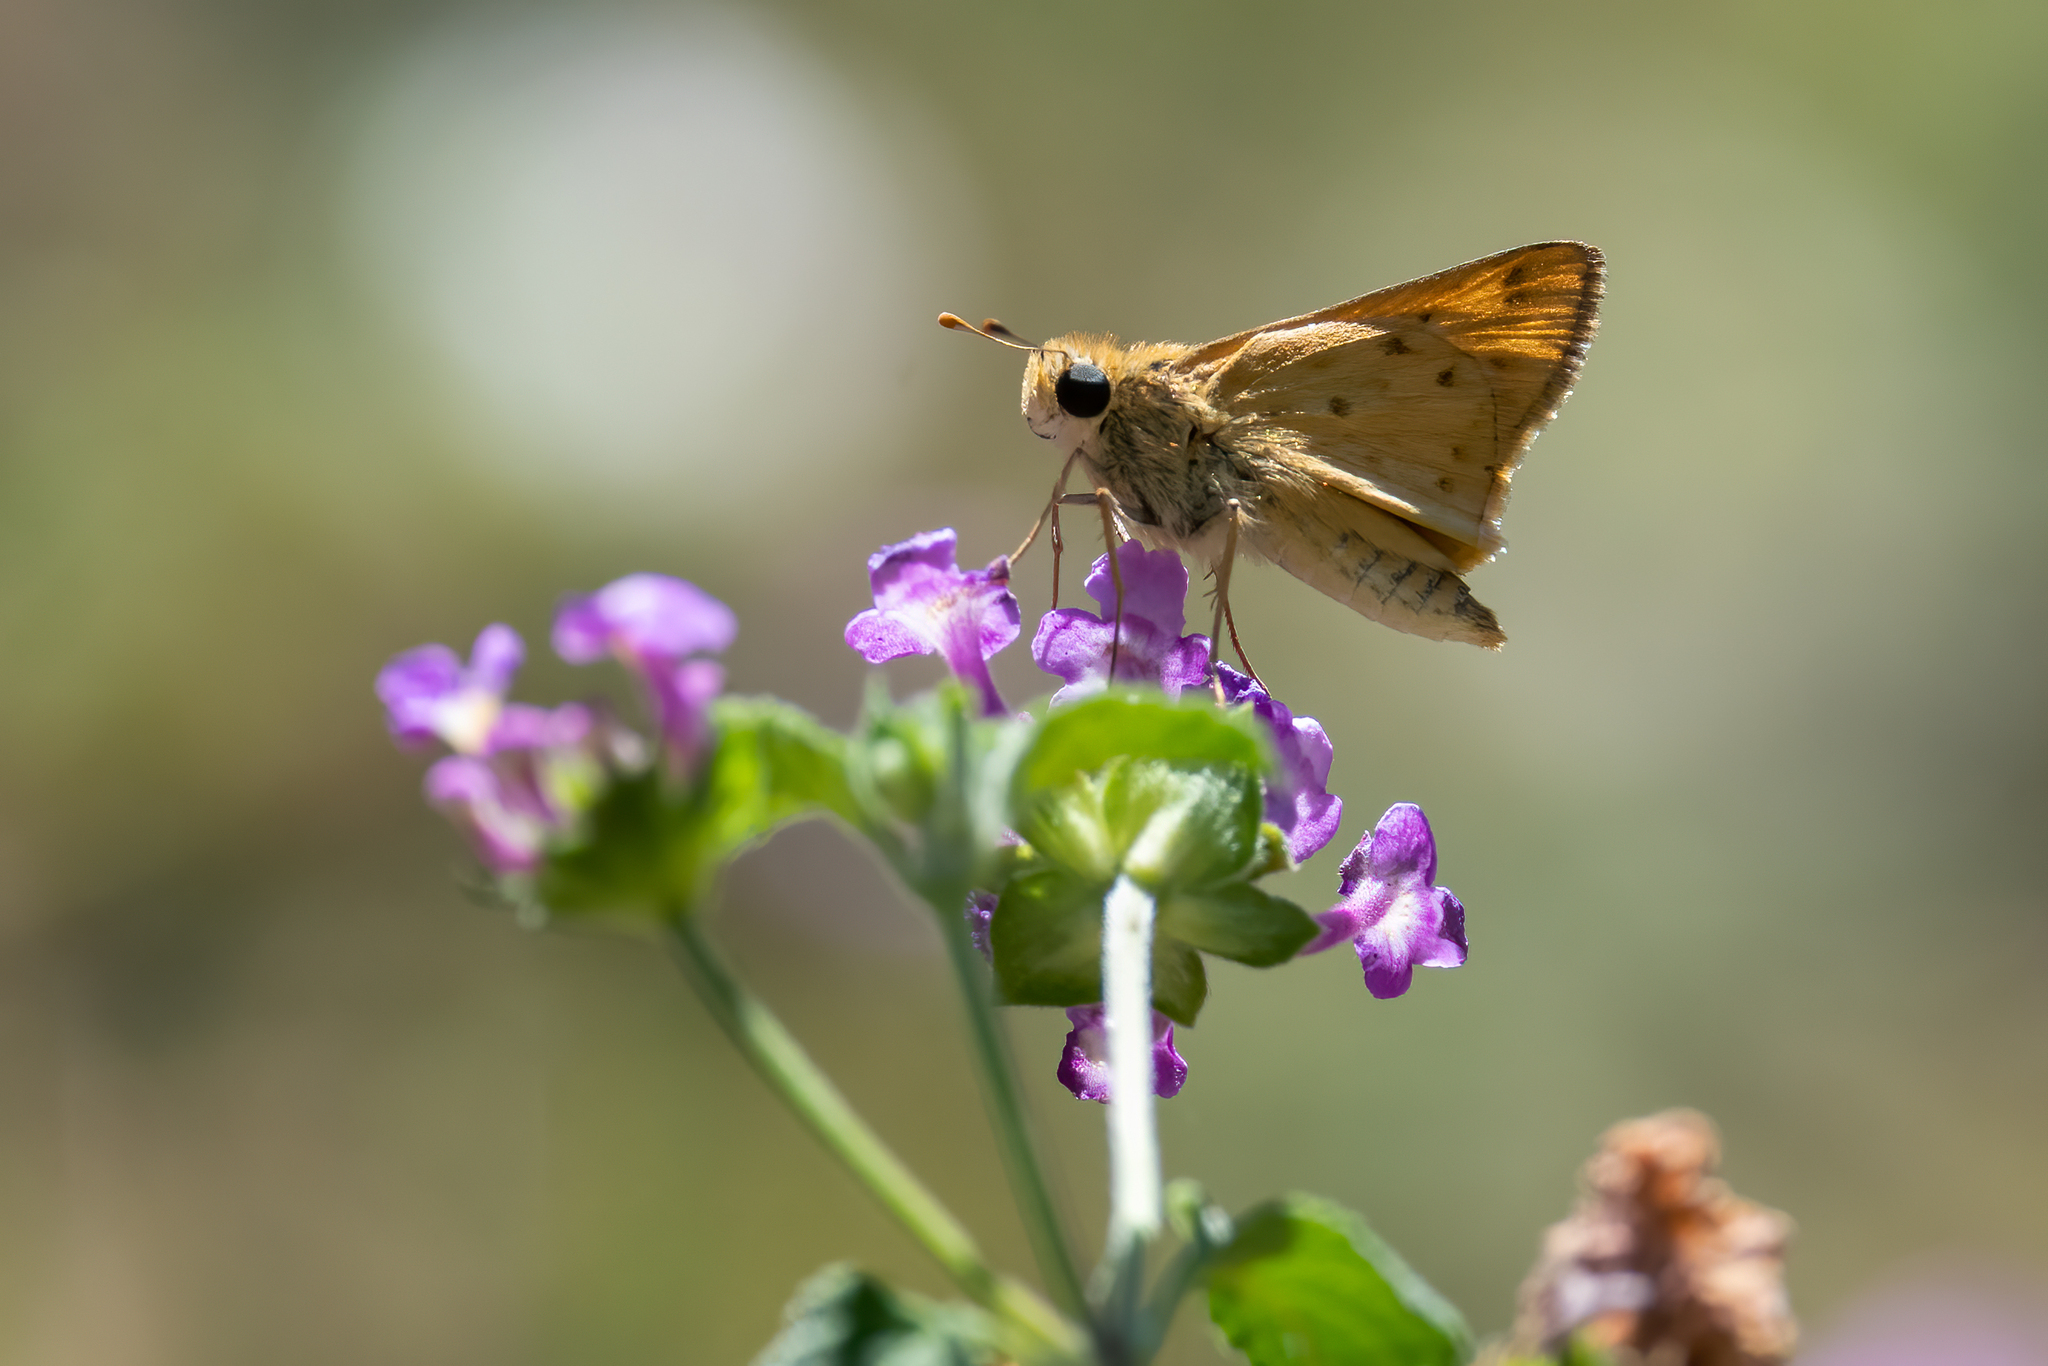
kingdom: Animalia
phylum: Arthropoda
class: Insecta
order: Lepidoptera
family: Hesperiidae
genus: Hylephila
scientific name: Hylephila phyleus
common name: Fiery skipper
